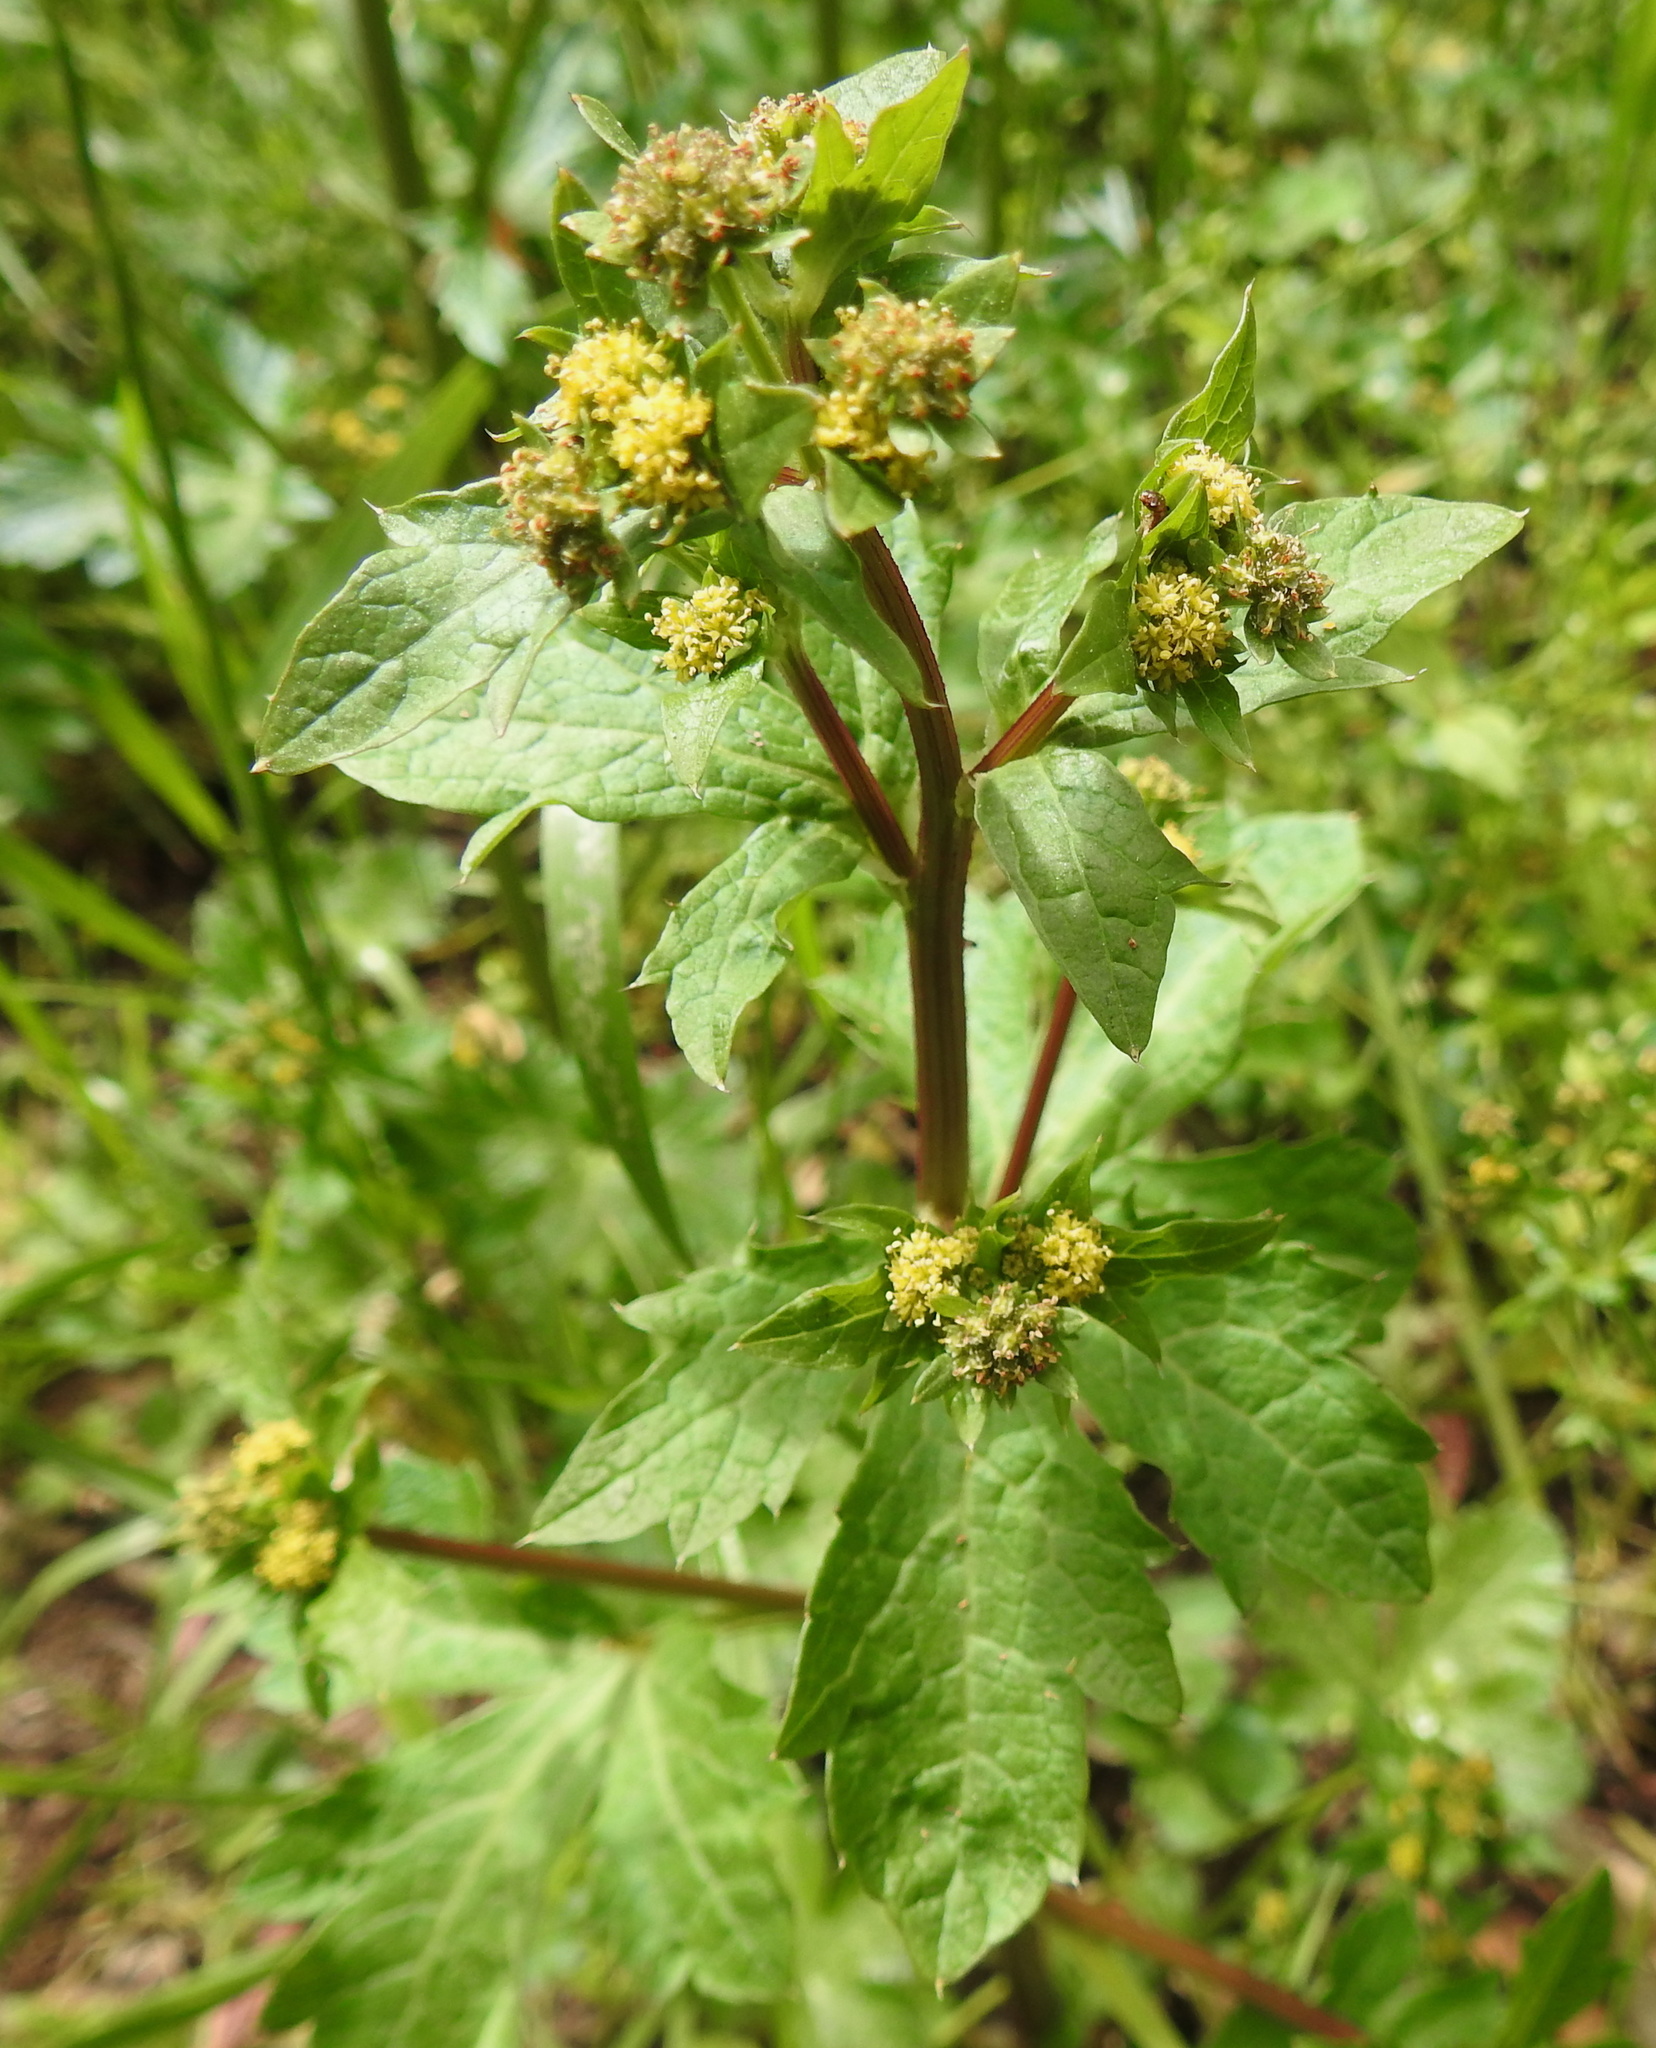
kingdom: Plantae
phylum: Tracheophyta
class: Magnoliopsida
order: Apiales
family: Apiaceae
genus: Sanicula
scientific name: Sanicula crassicaulis
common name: Western snakeroot
